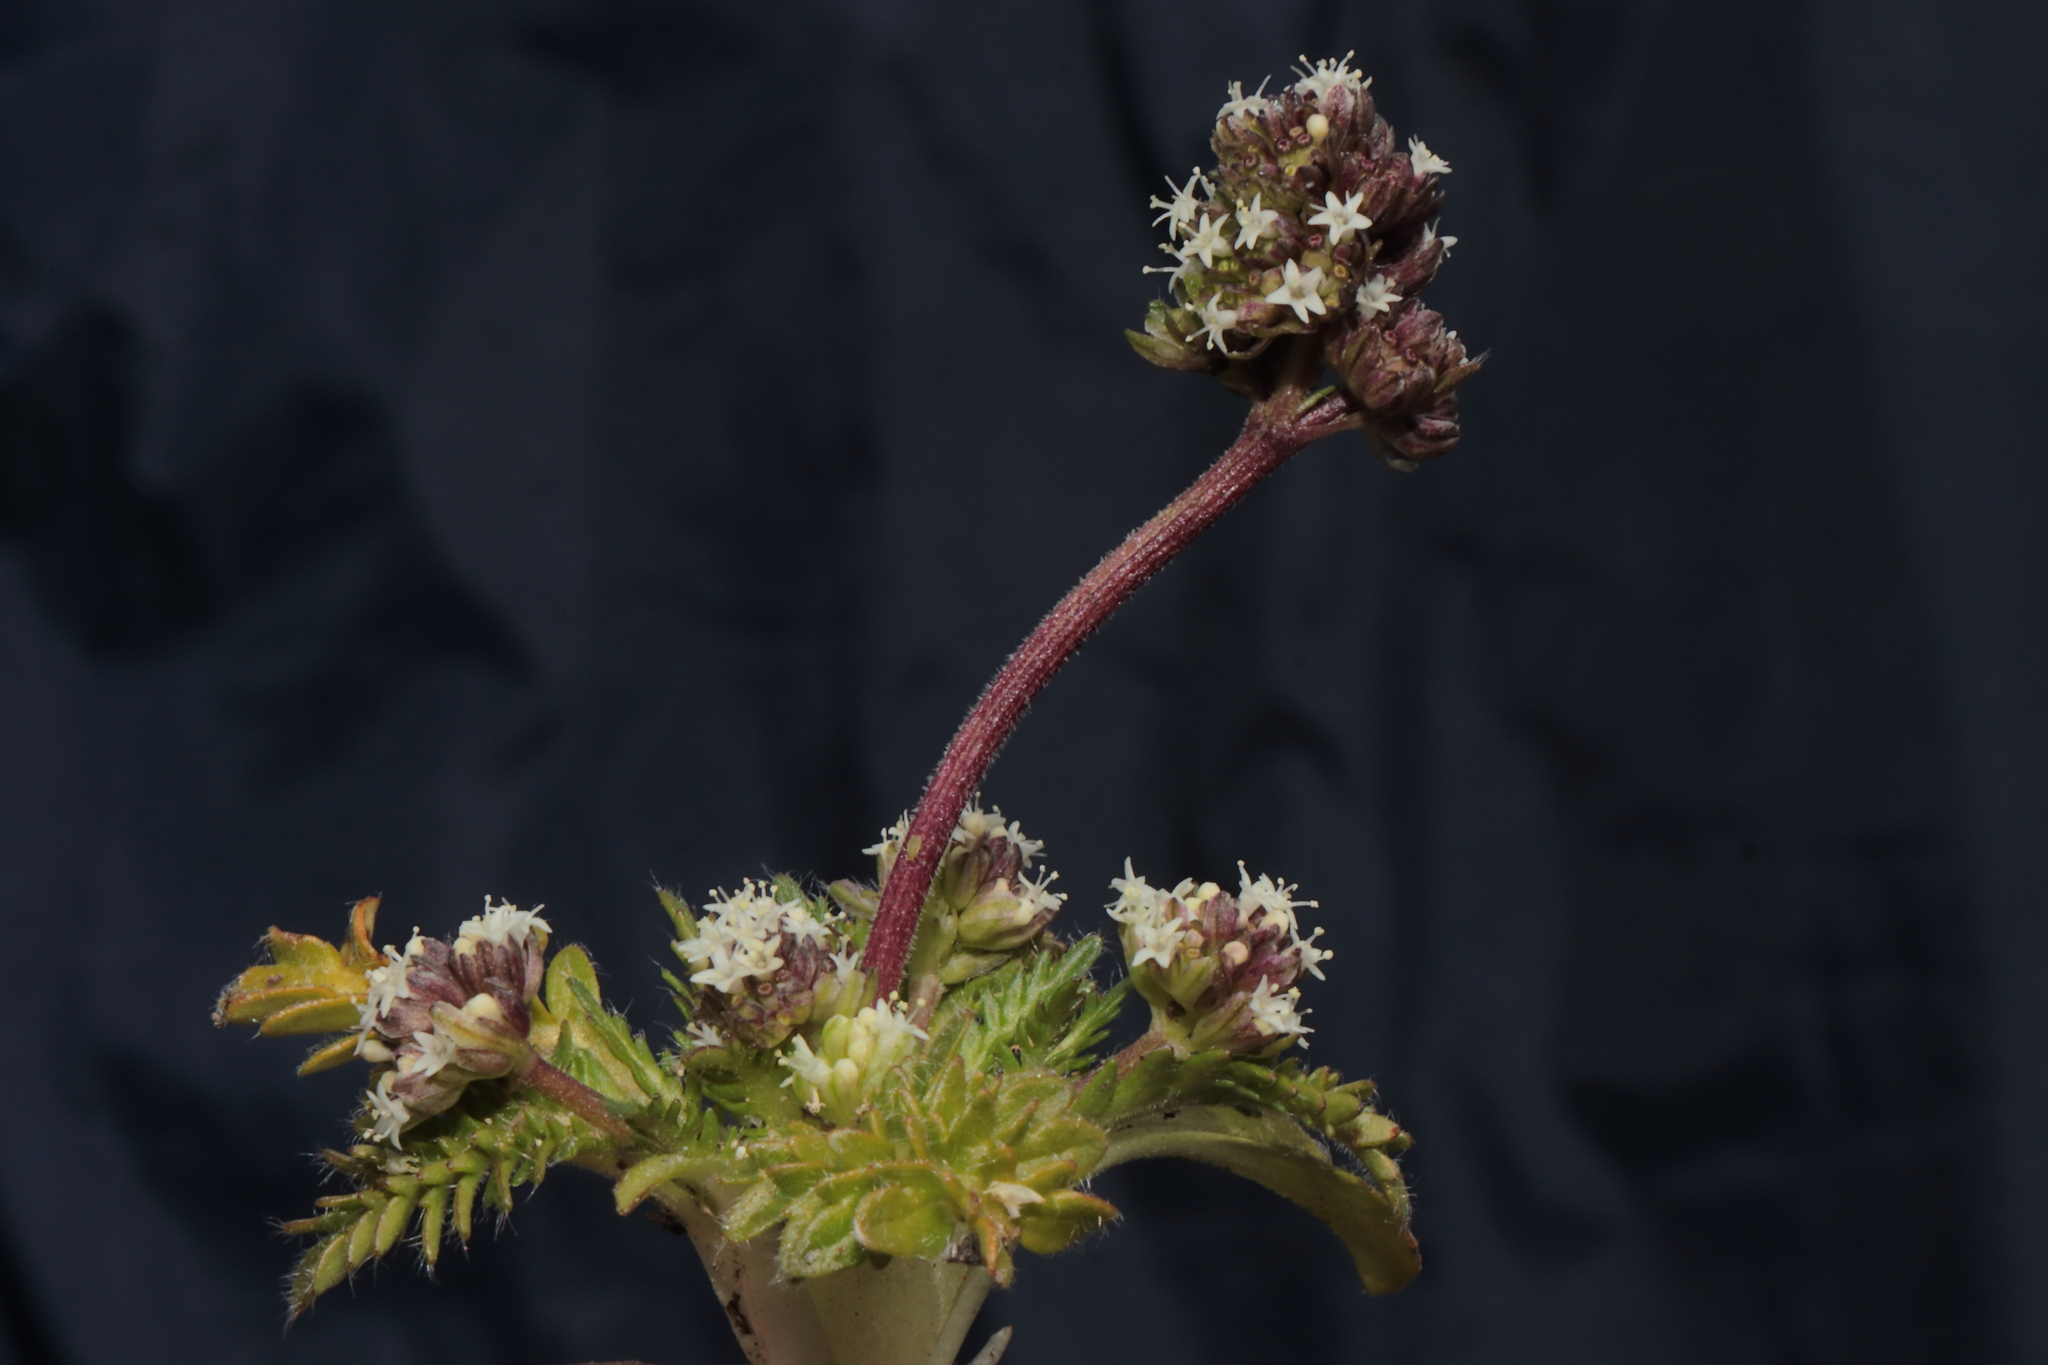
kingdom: Plantae
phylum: Tracheophyta
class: Magnoliopsida
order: Dipsacales
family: Caprifoliaceae
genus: Valeriana
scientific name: Valeriana globiflora
